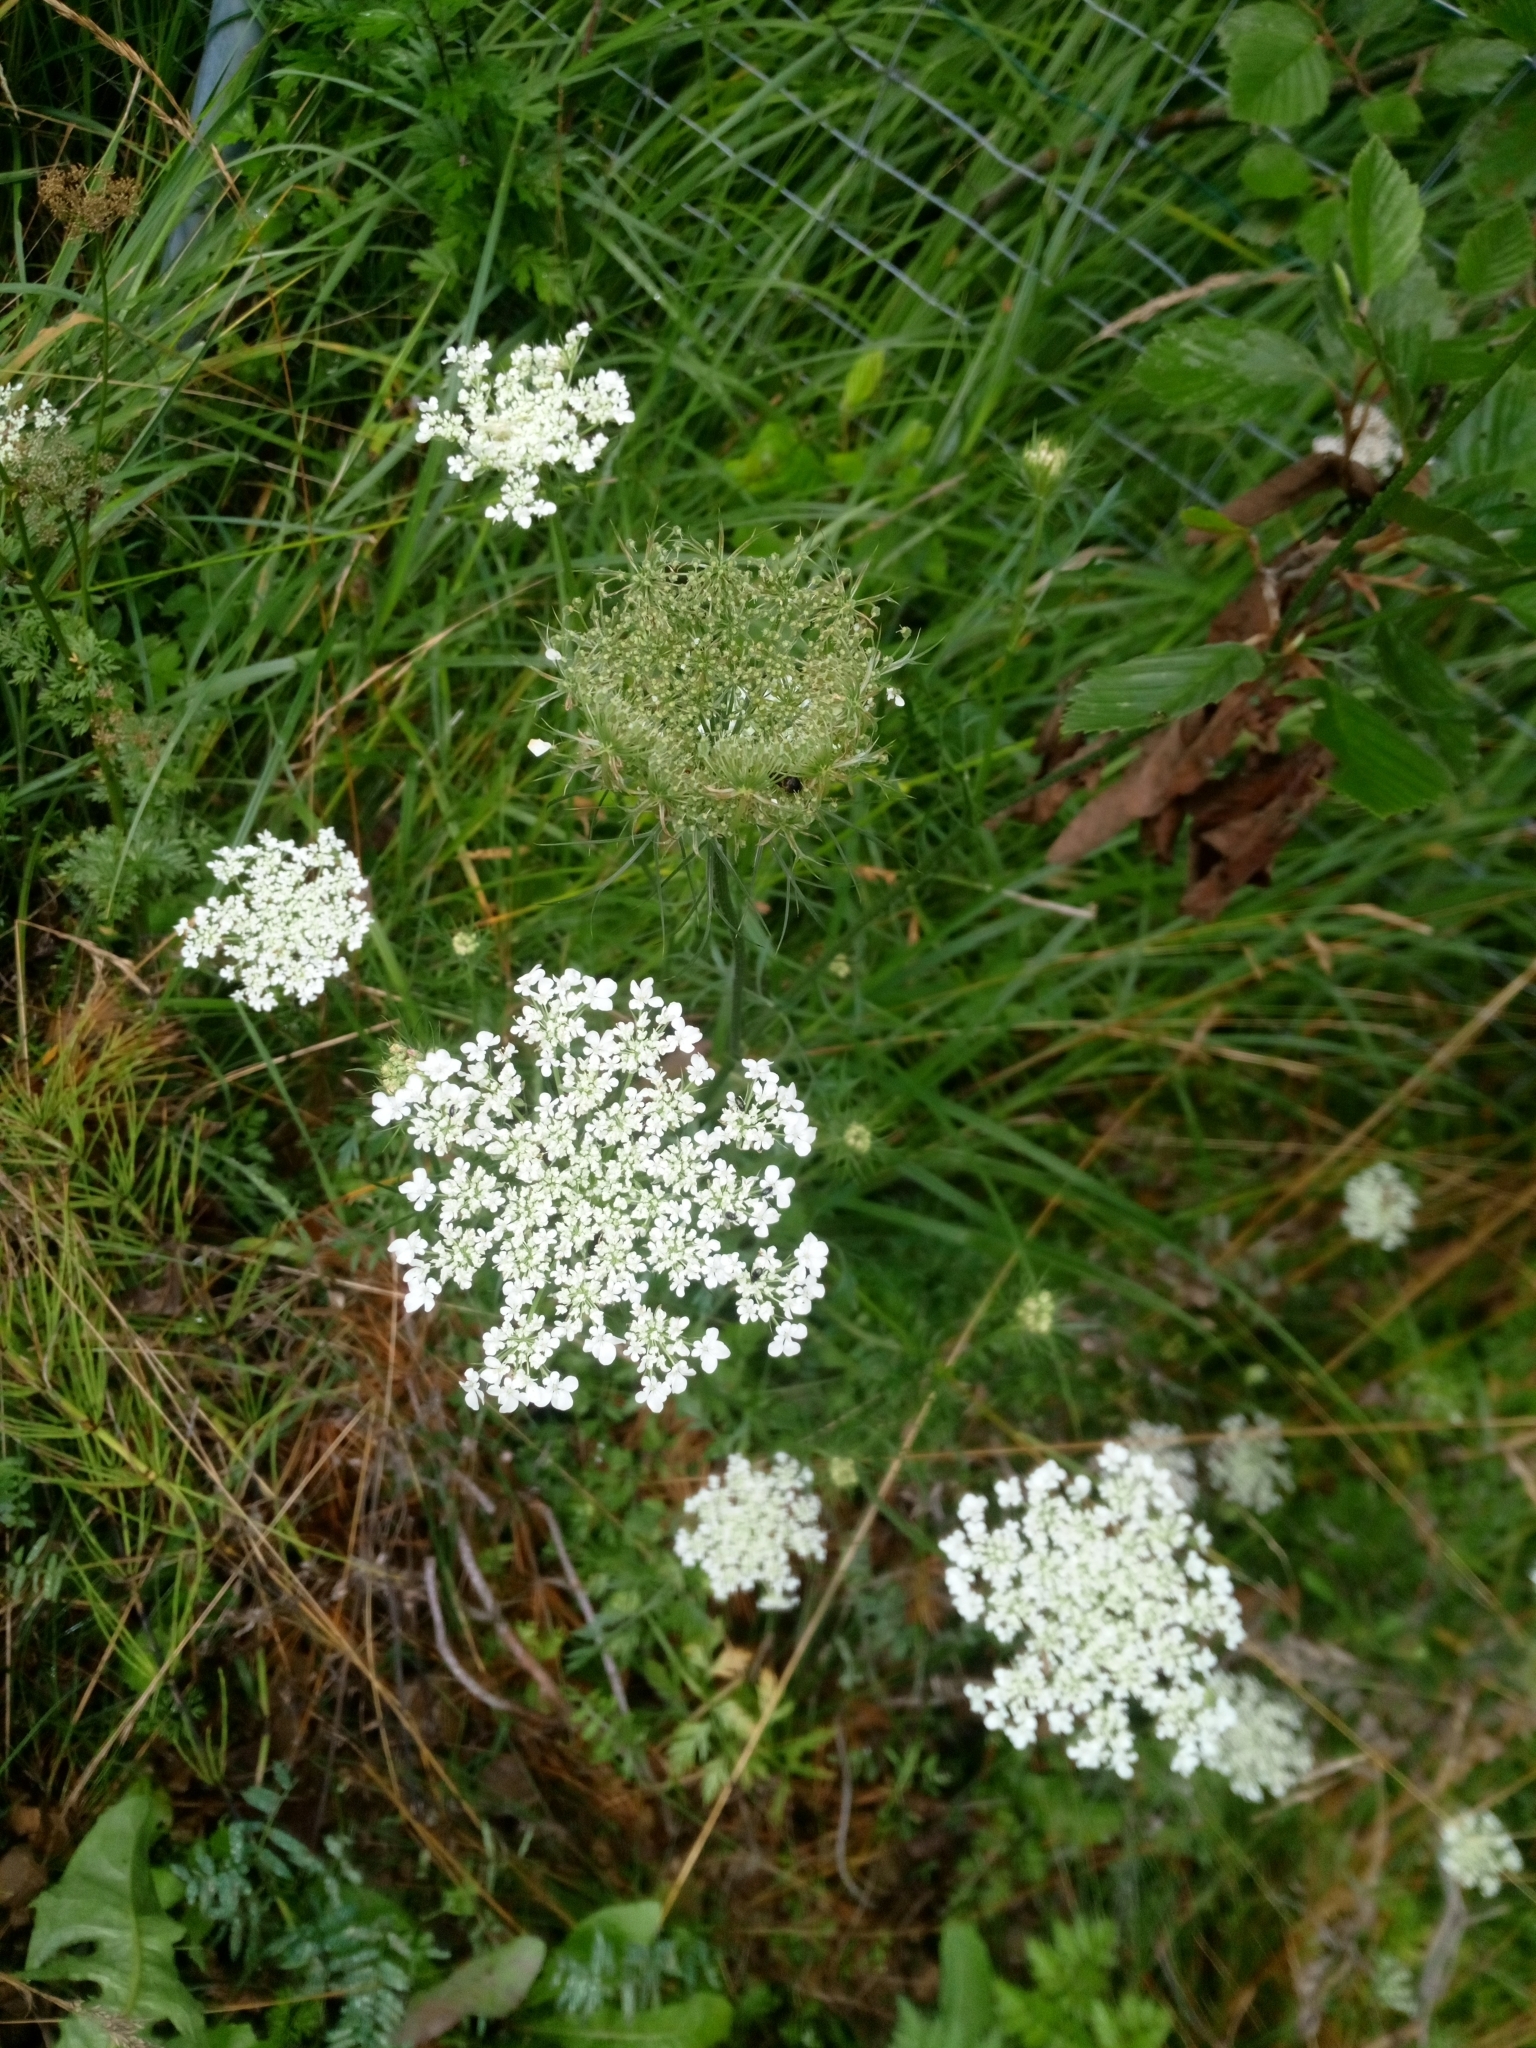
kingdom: Plantae
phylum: Tracheophyta
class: Magnoliopsida
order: Apiales
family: Apiaceae
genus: Daucus
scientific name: Daucus carota
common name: Wild carrot
